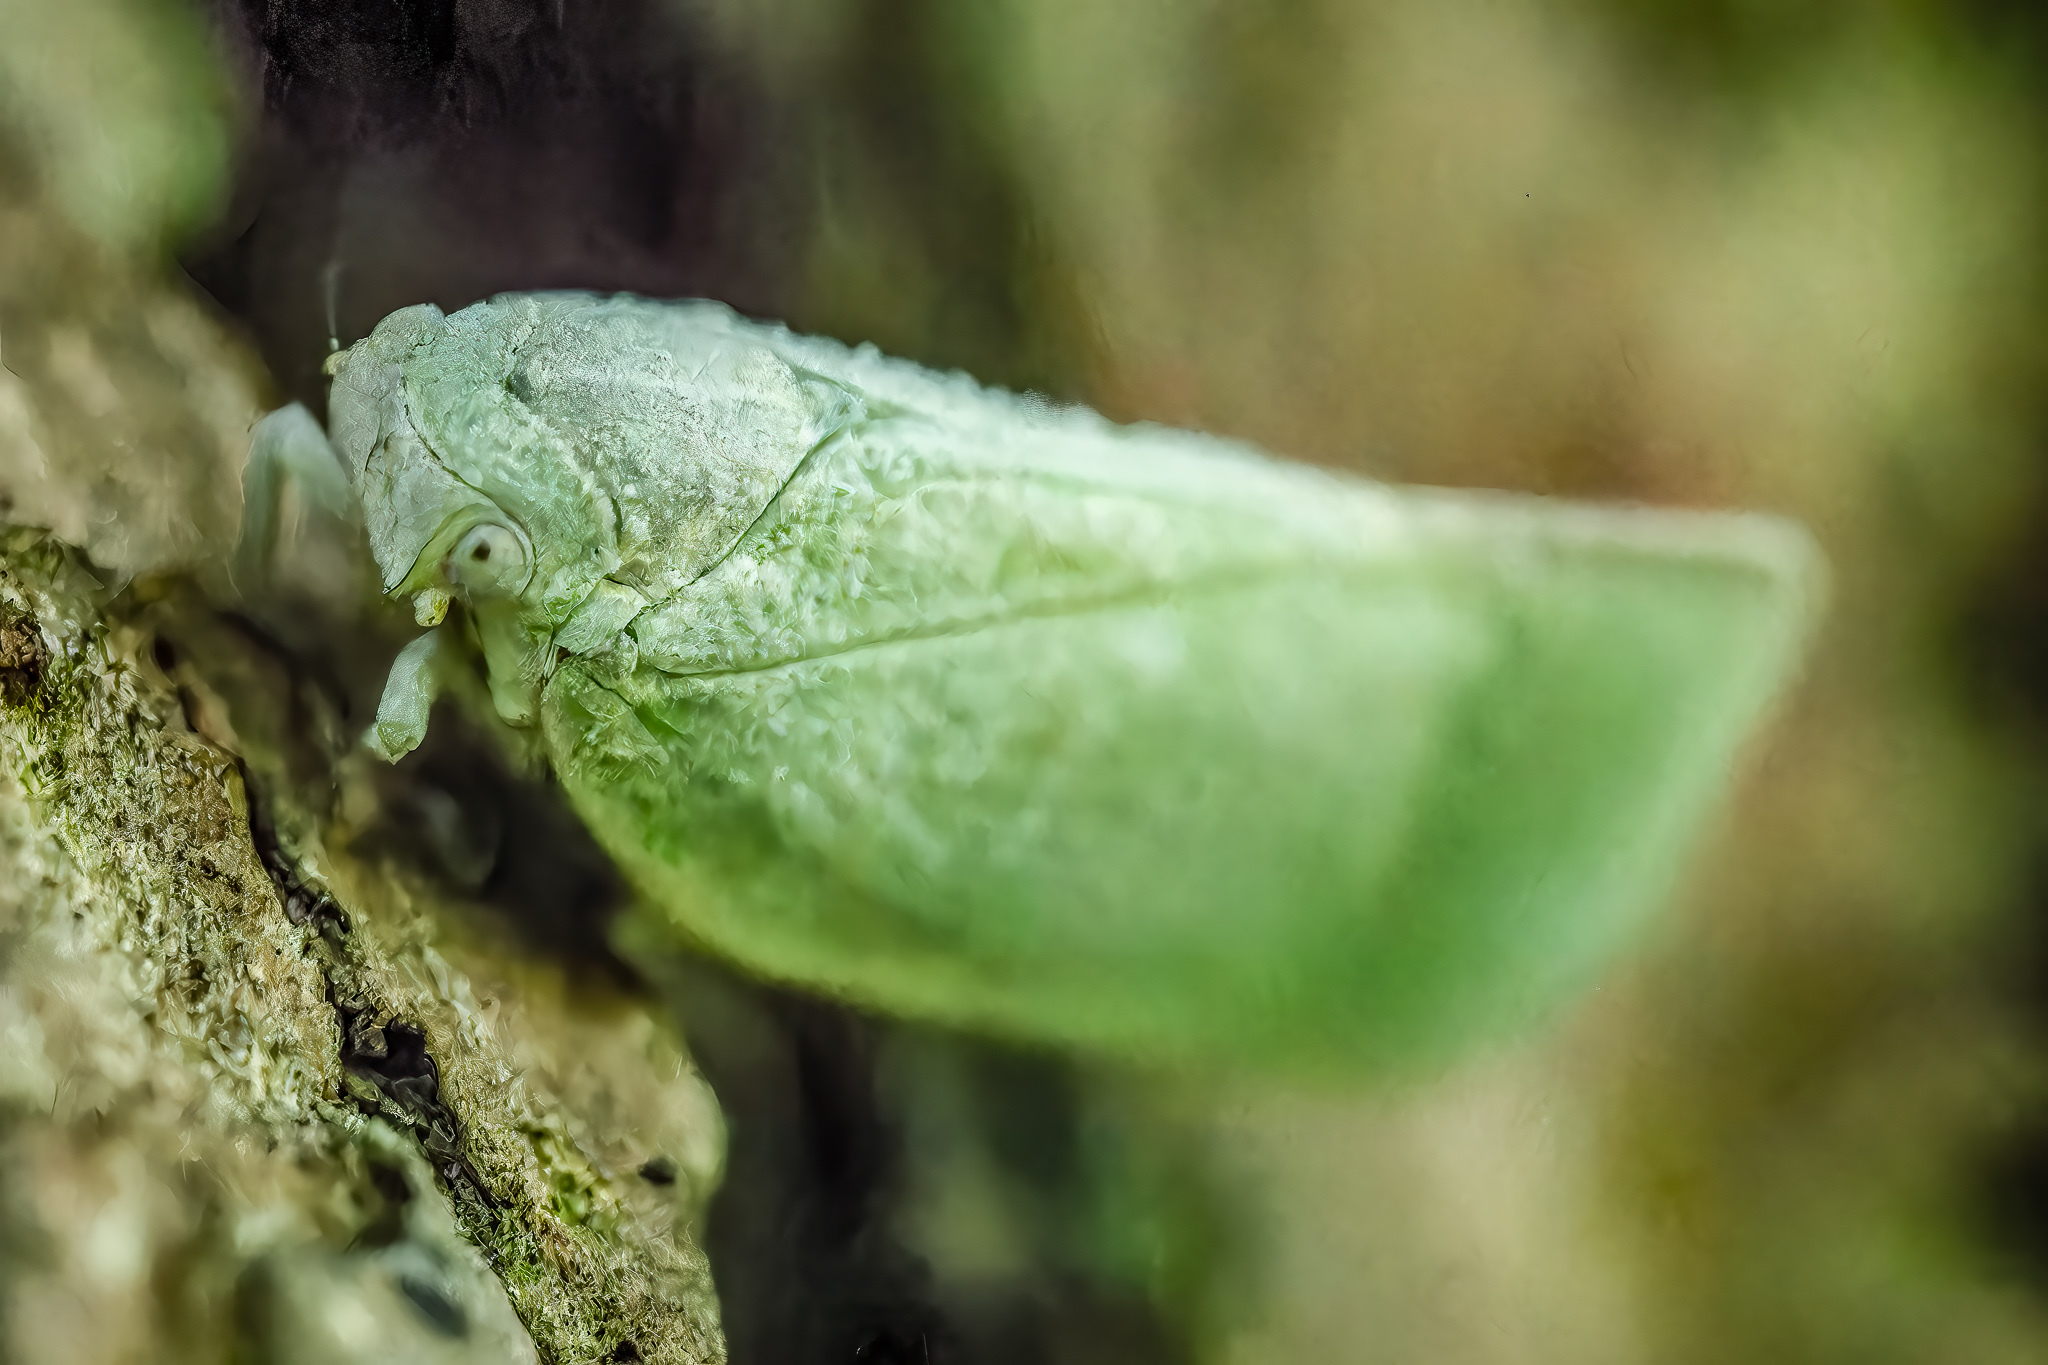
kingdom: Animalia
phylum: Arthropoda
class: Insecta
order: Hemiptera
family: Flatidae
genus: Flatormenis
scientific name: Flatormenis proxima
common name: Northern flatid planthopper
